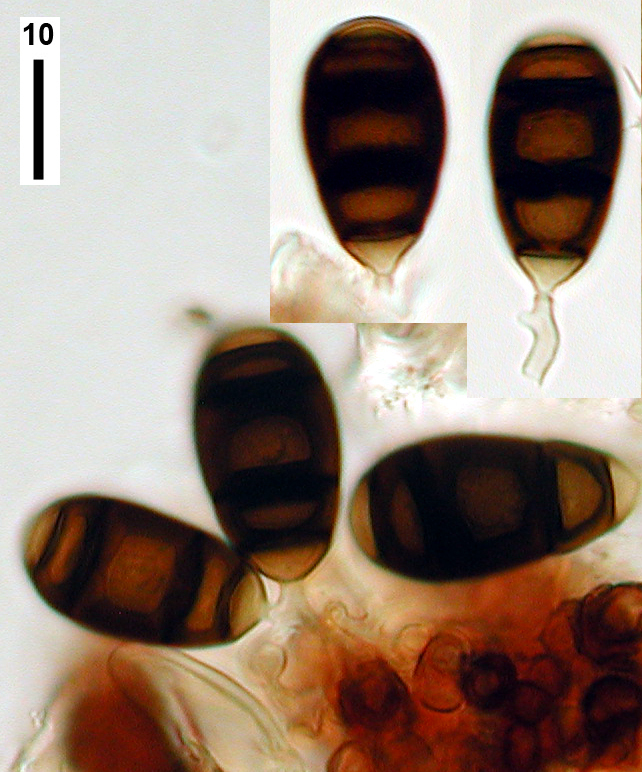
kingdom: Fungi
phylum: Ascomycota
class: Dothideomycetes
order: Pleosporales
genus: Bactrodesmium
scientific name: Bactrodesmium betulicola
